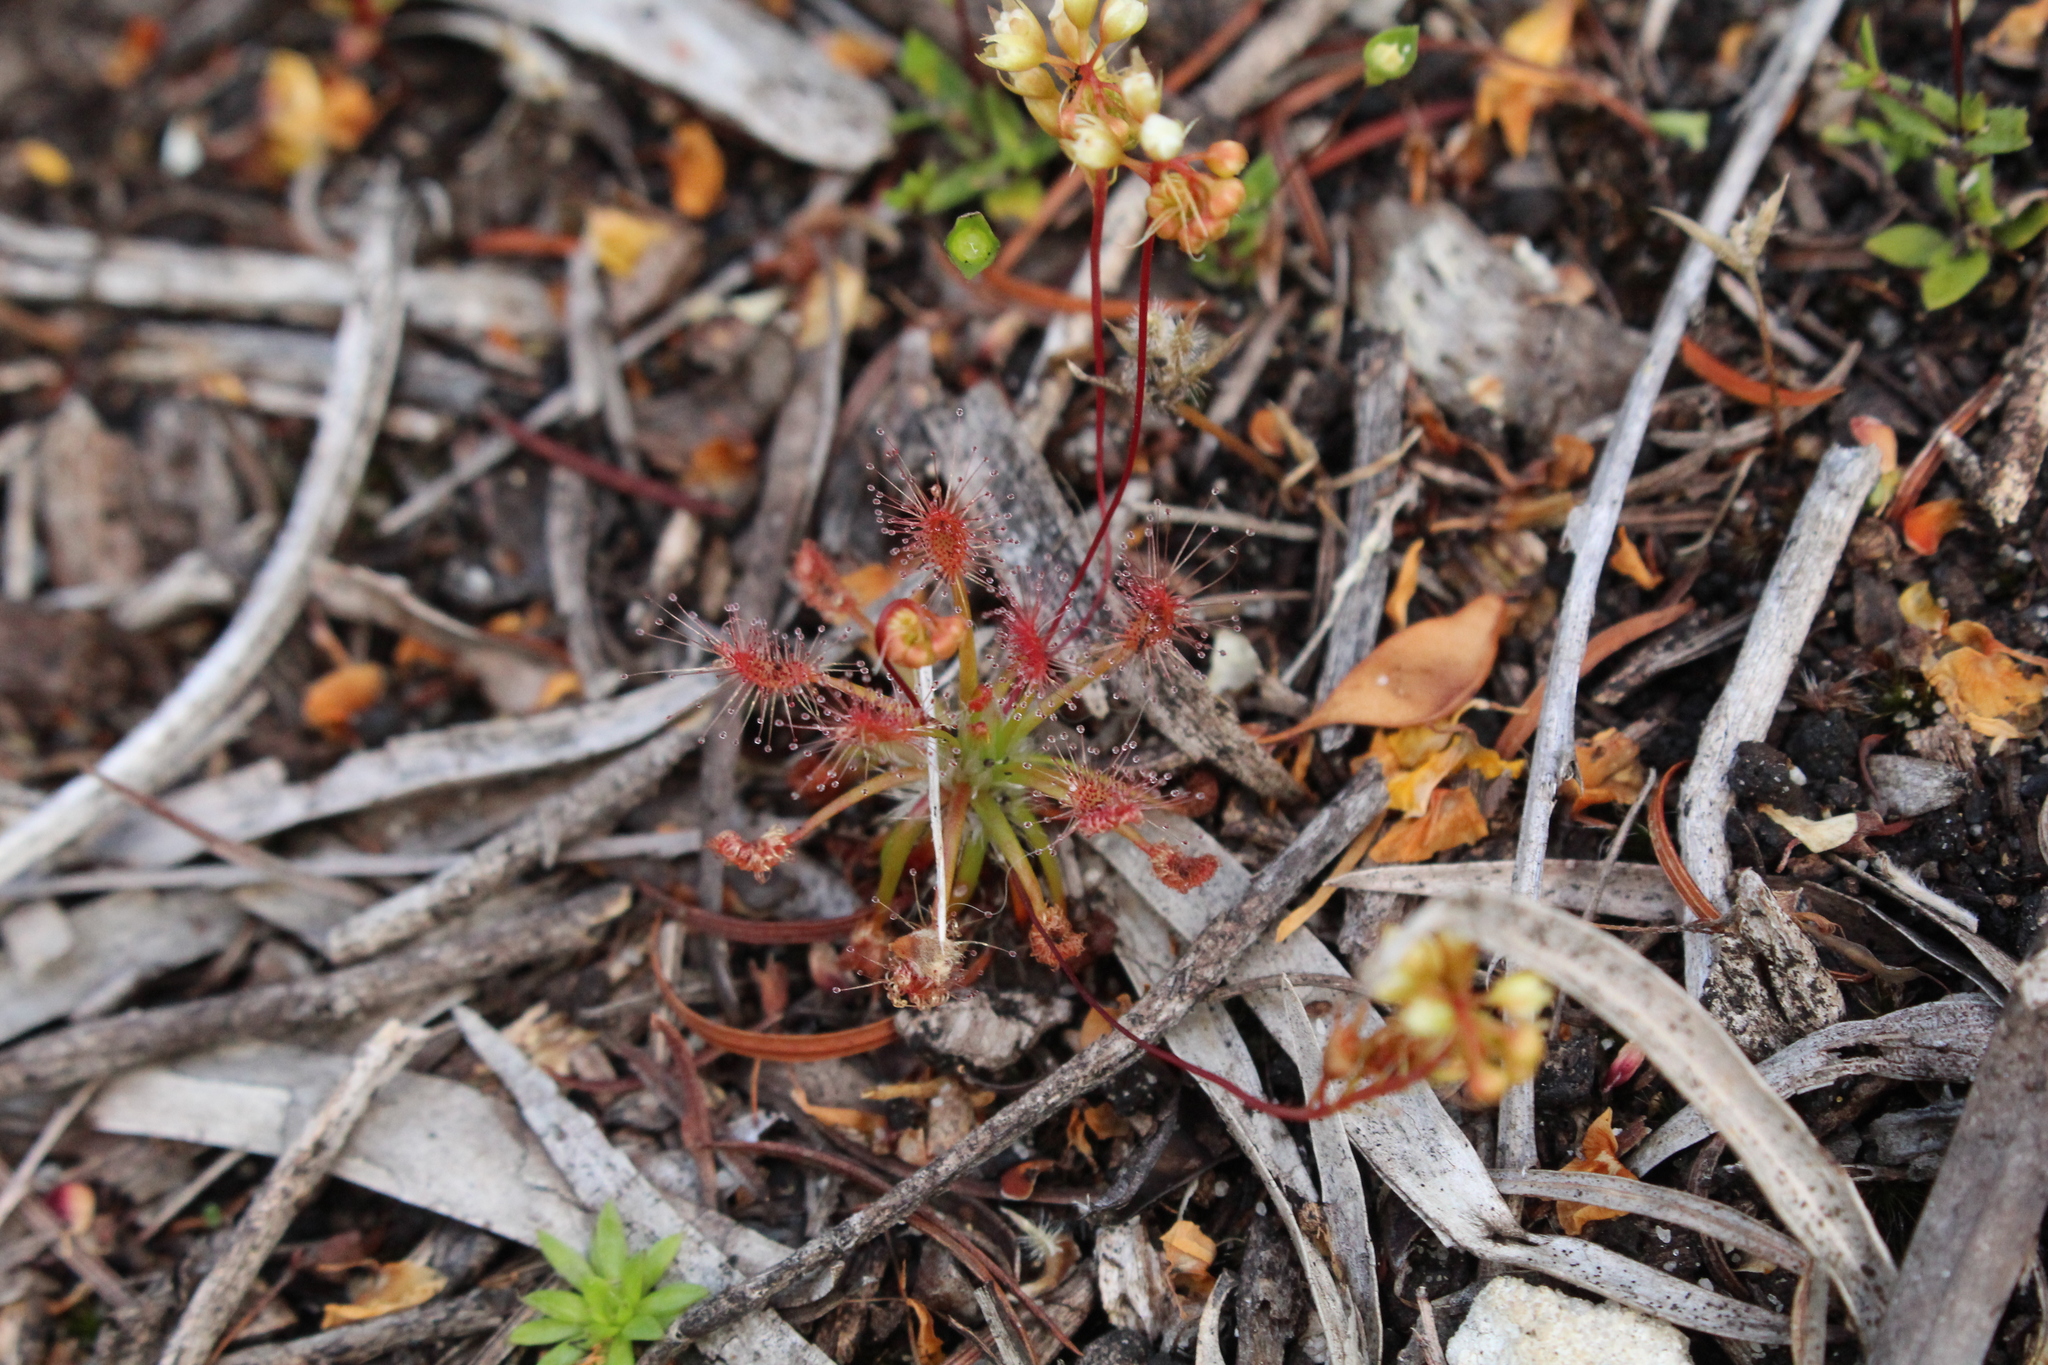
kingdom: Plantae
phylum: Tracheophyta
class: Magnoliopsida
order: Caryophyllales
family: Droseraceae
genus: Drosera
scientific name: Drosera paleacea
